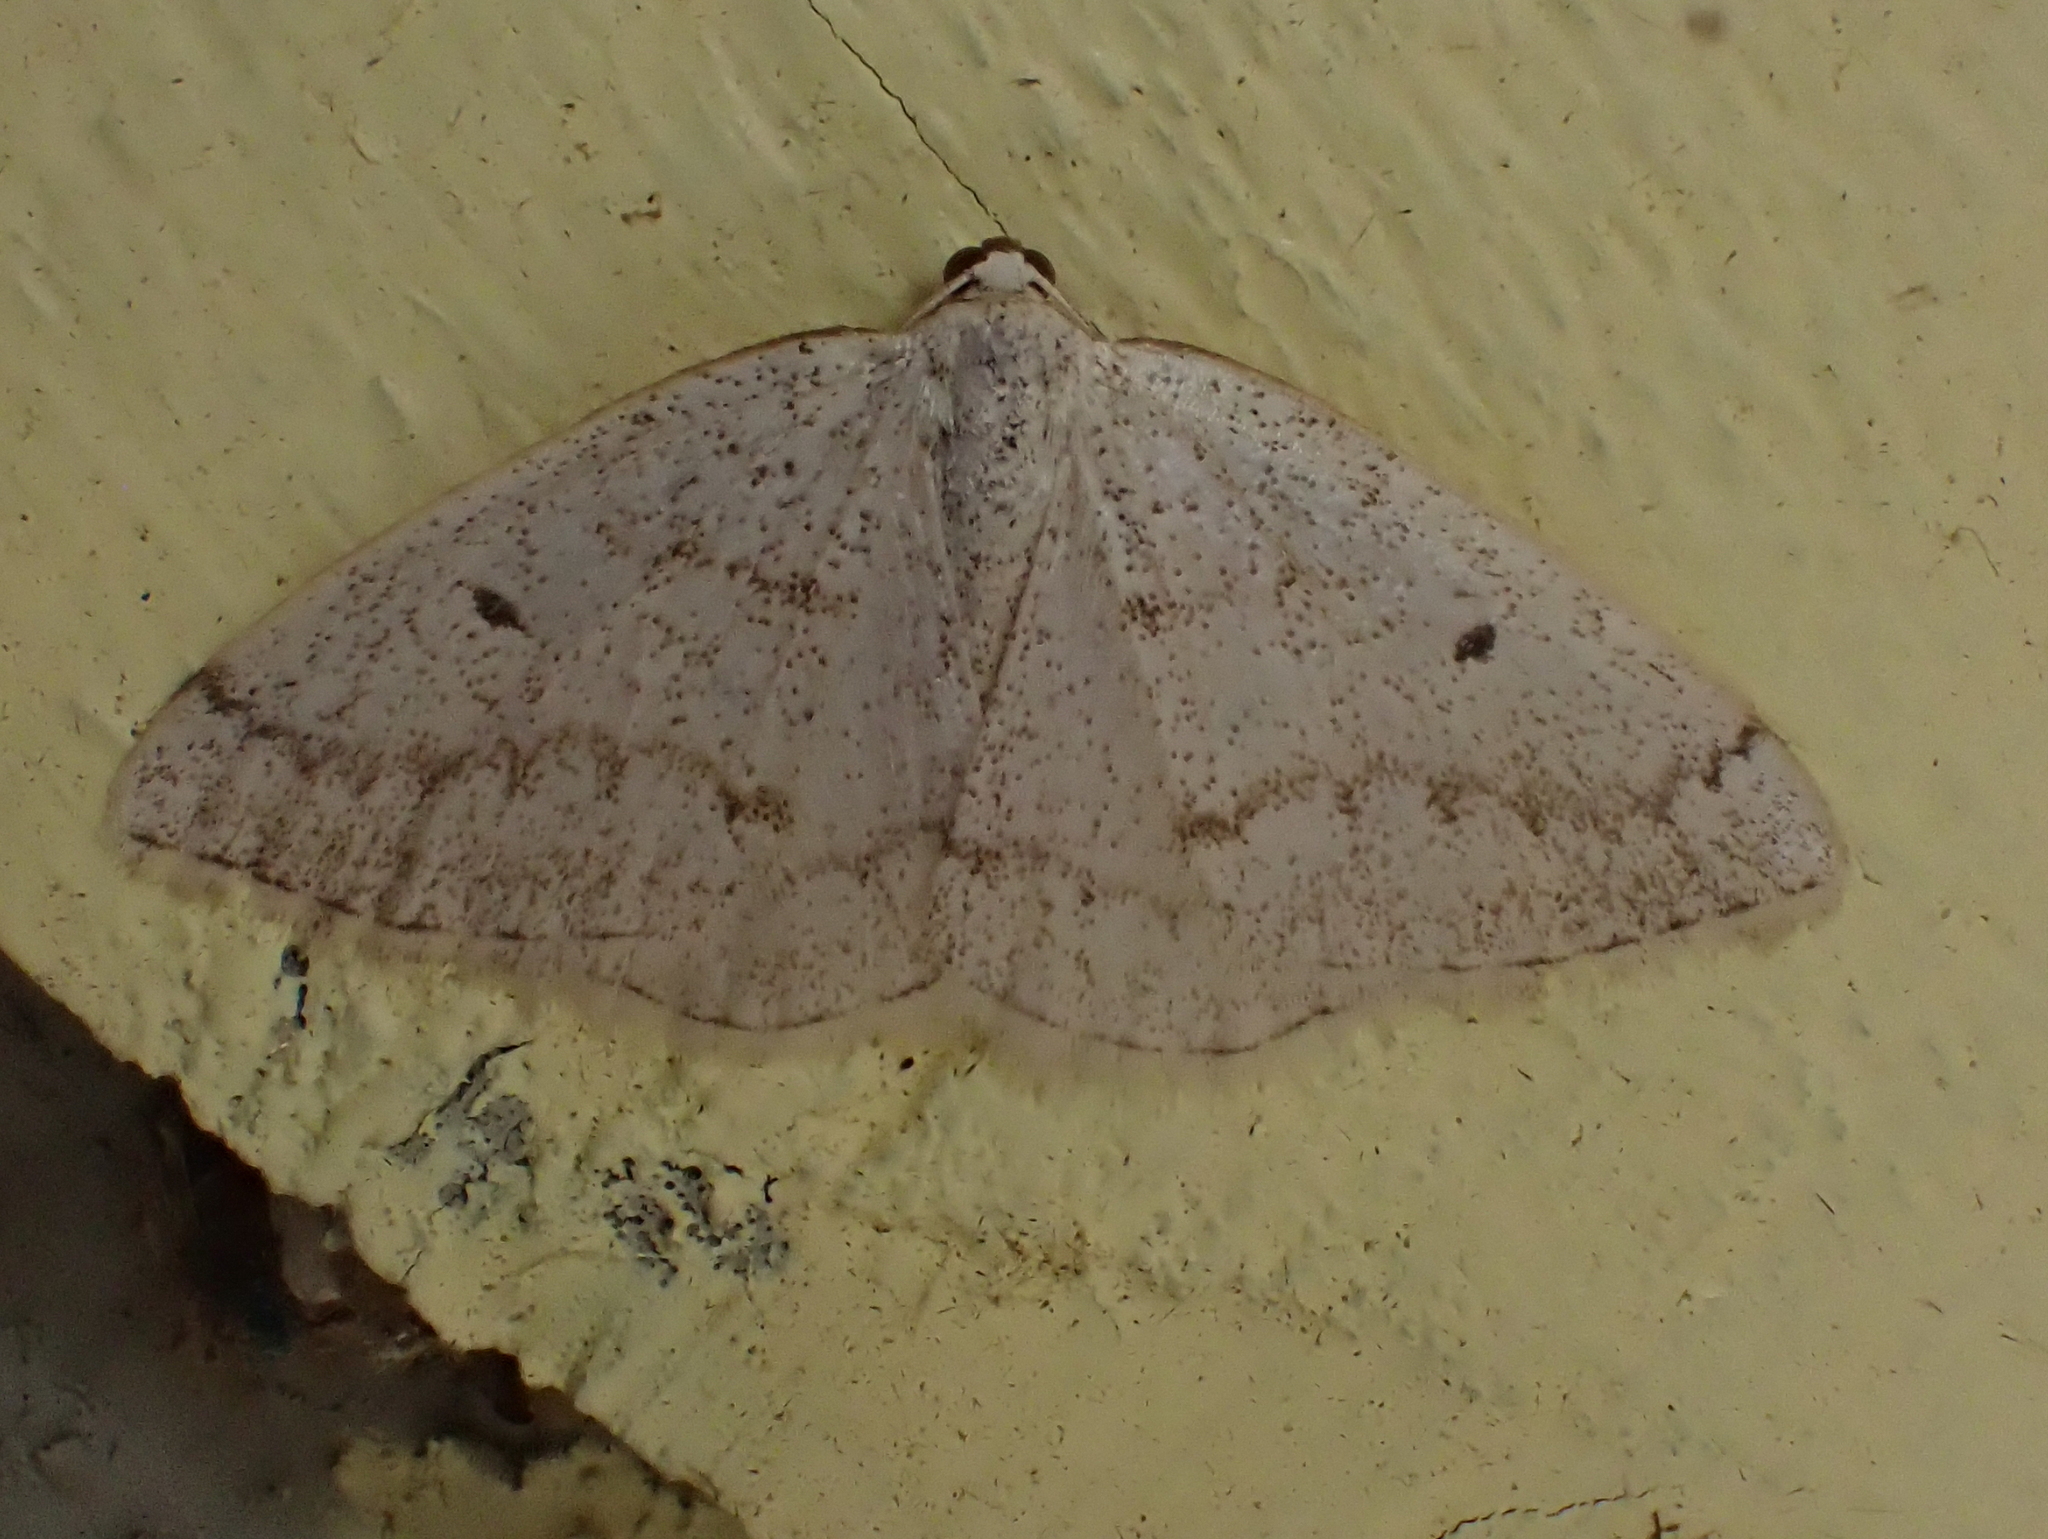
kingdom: Animalia
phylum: Arthropoda
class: Insecta
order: Lepidoptera
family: Geometridae
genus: Lomographa
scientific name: Lomographa glomeraria
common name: Gray spring moth
